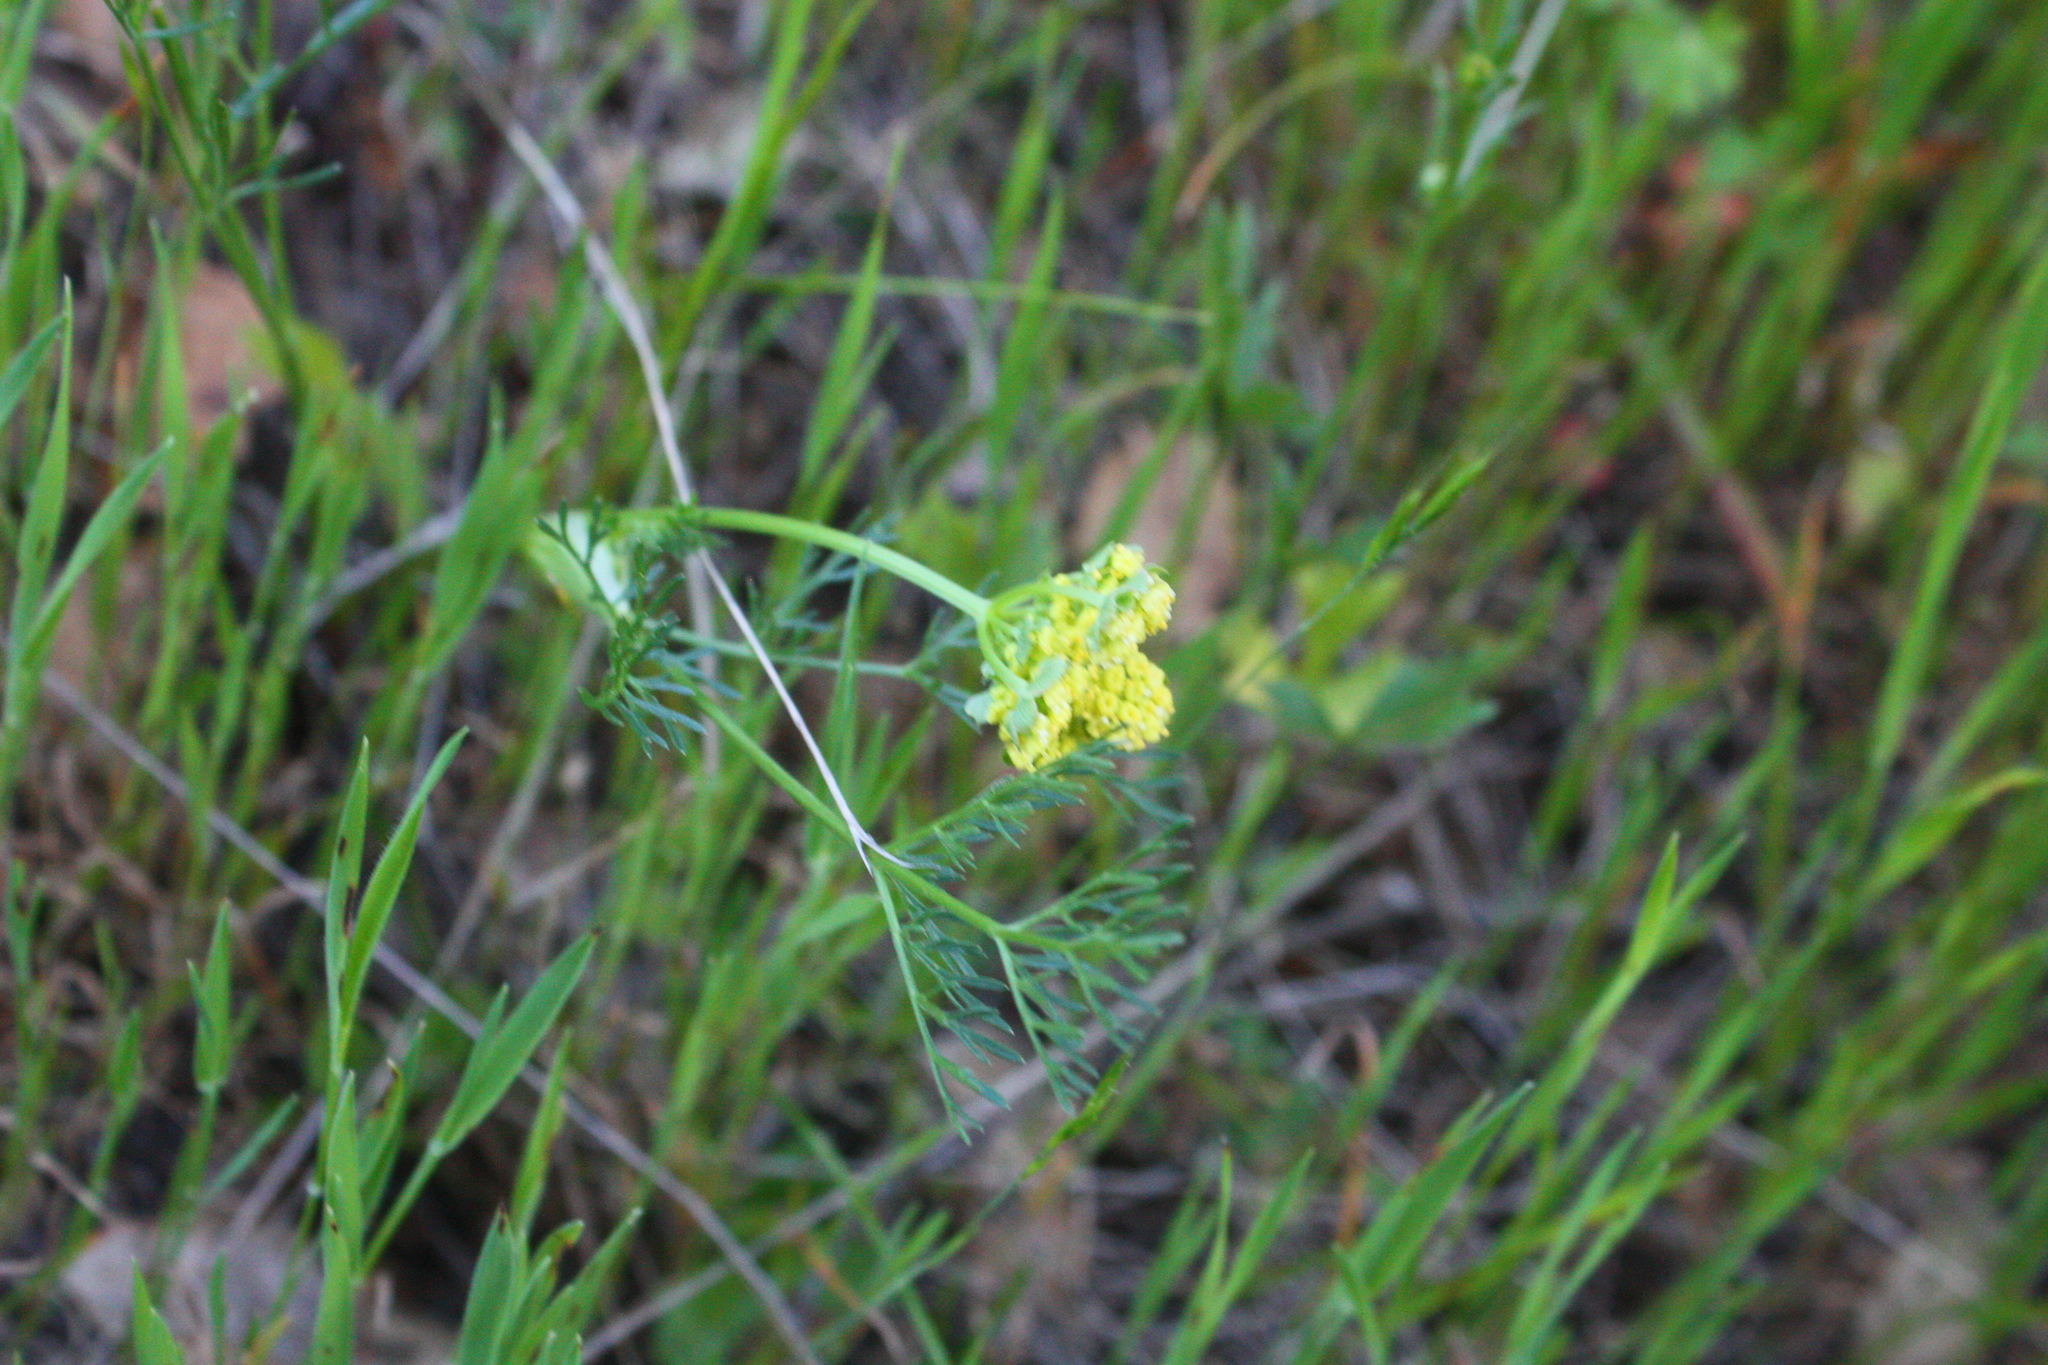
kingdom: Plantae
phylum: Tracheophyta
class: Magnoliopsida
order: Apiales
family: Apiaceae
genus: Lomatium
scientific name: Lomatium utriculatum
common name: Fine-leaf desert-parsley
